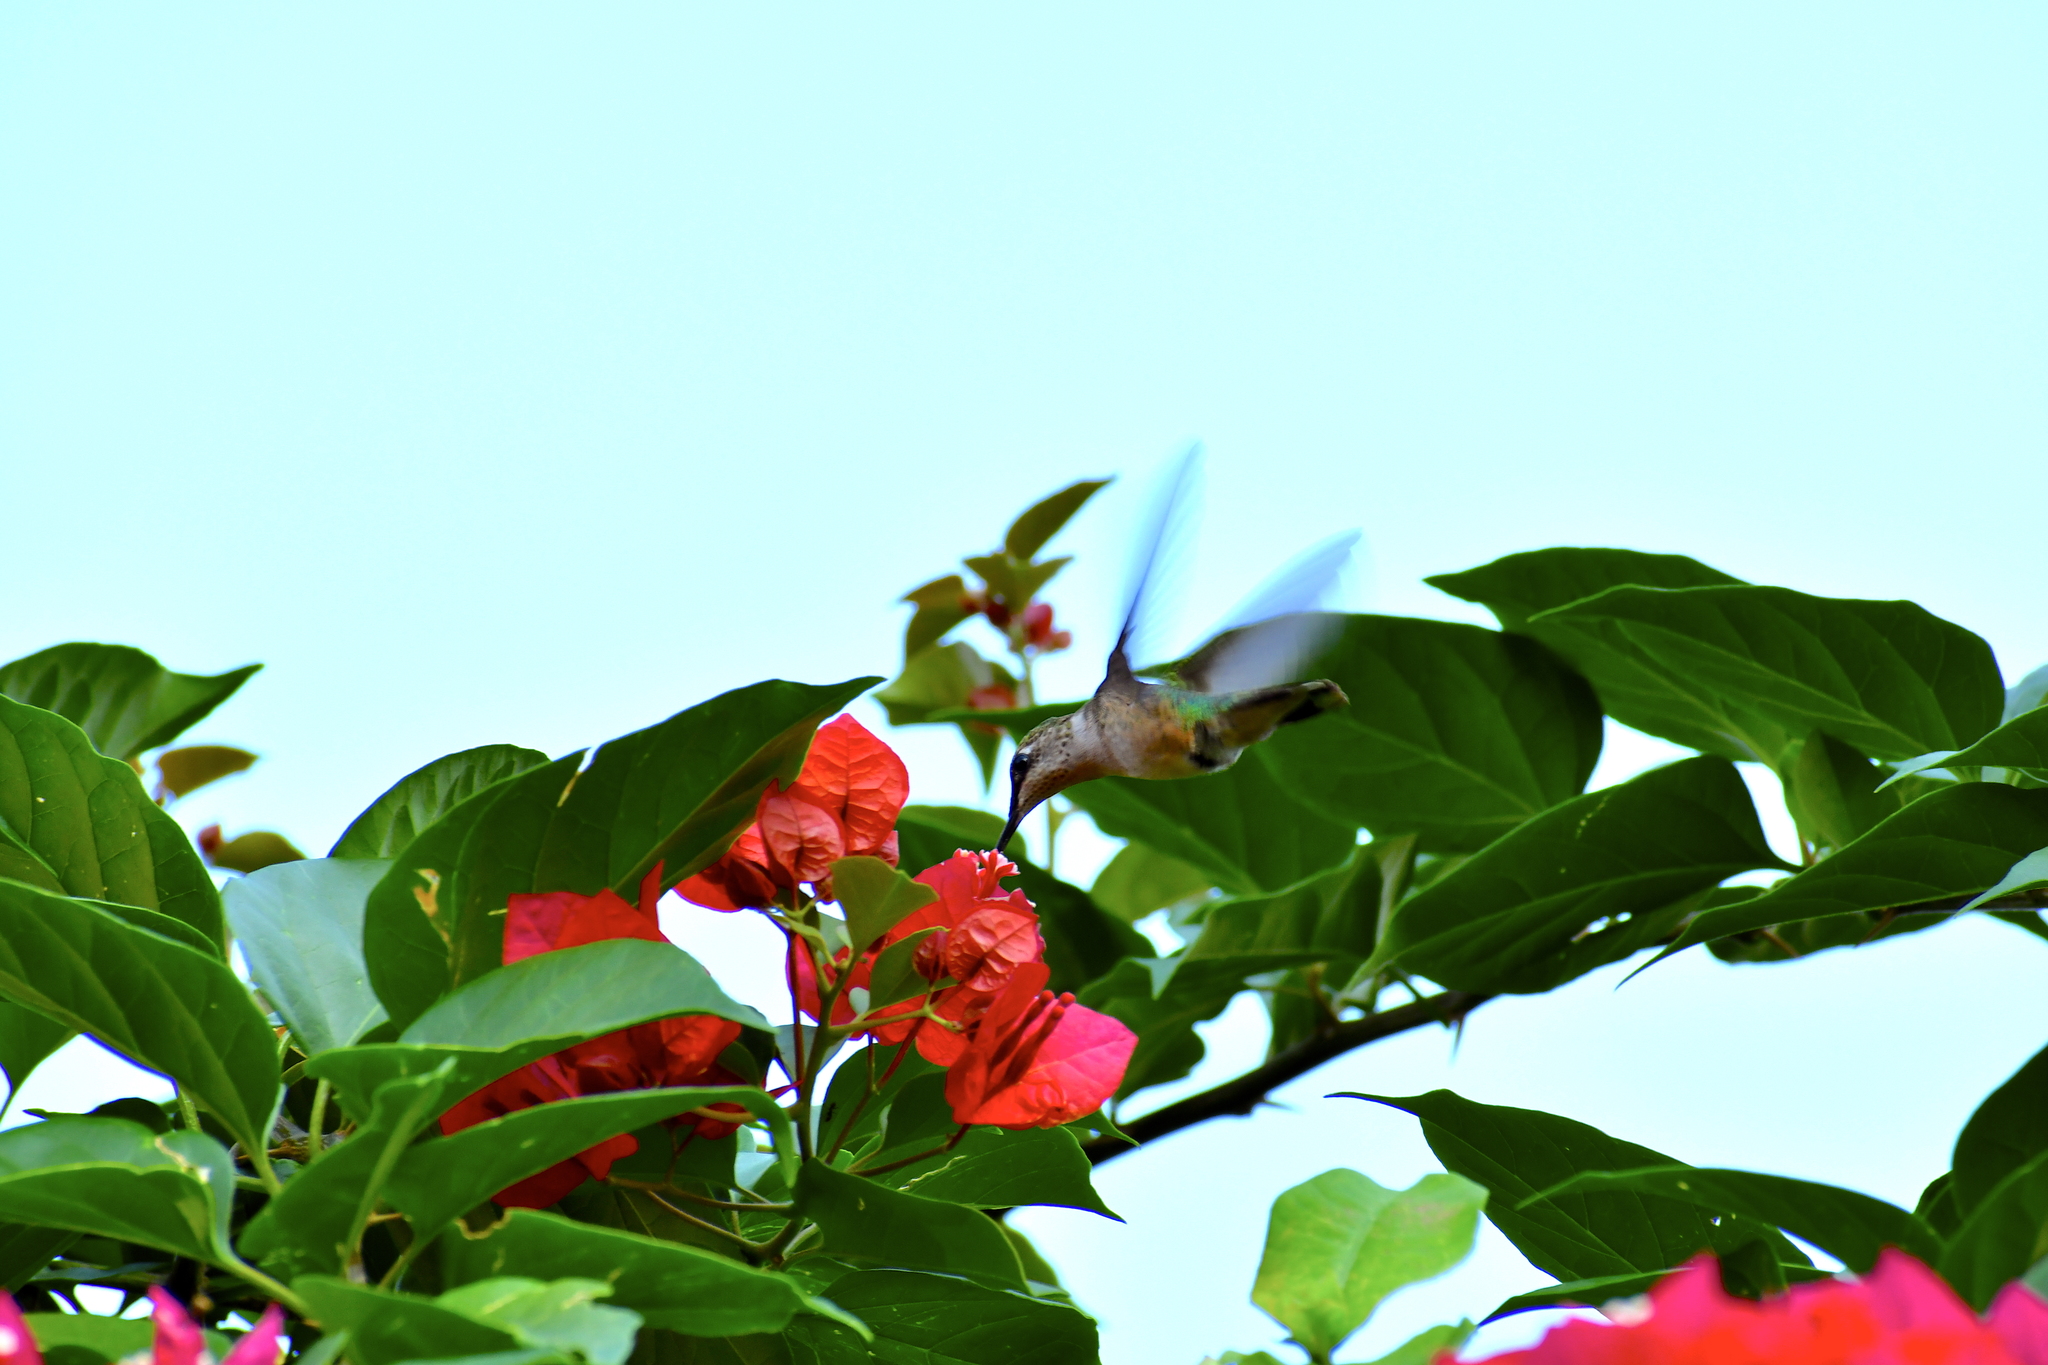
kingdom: Animalia
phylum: Chordata
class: Aves
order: Apodiformes
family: Trochilidae
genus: Archilochus
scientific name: Archilochus colubris
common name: Ruby-throated hummingbird
